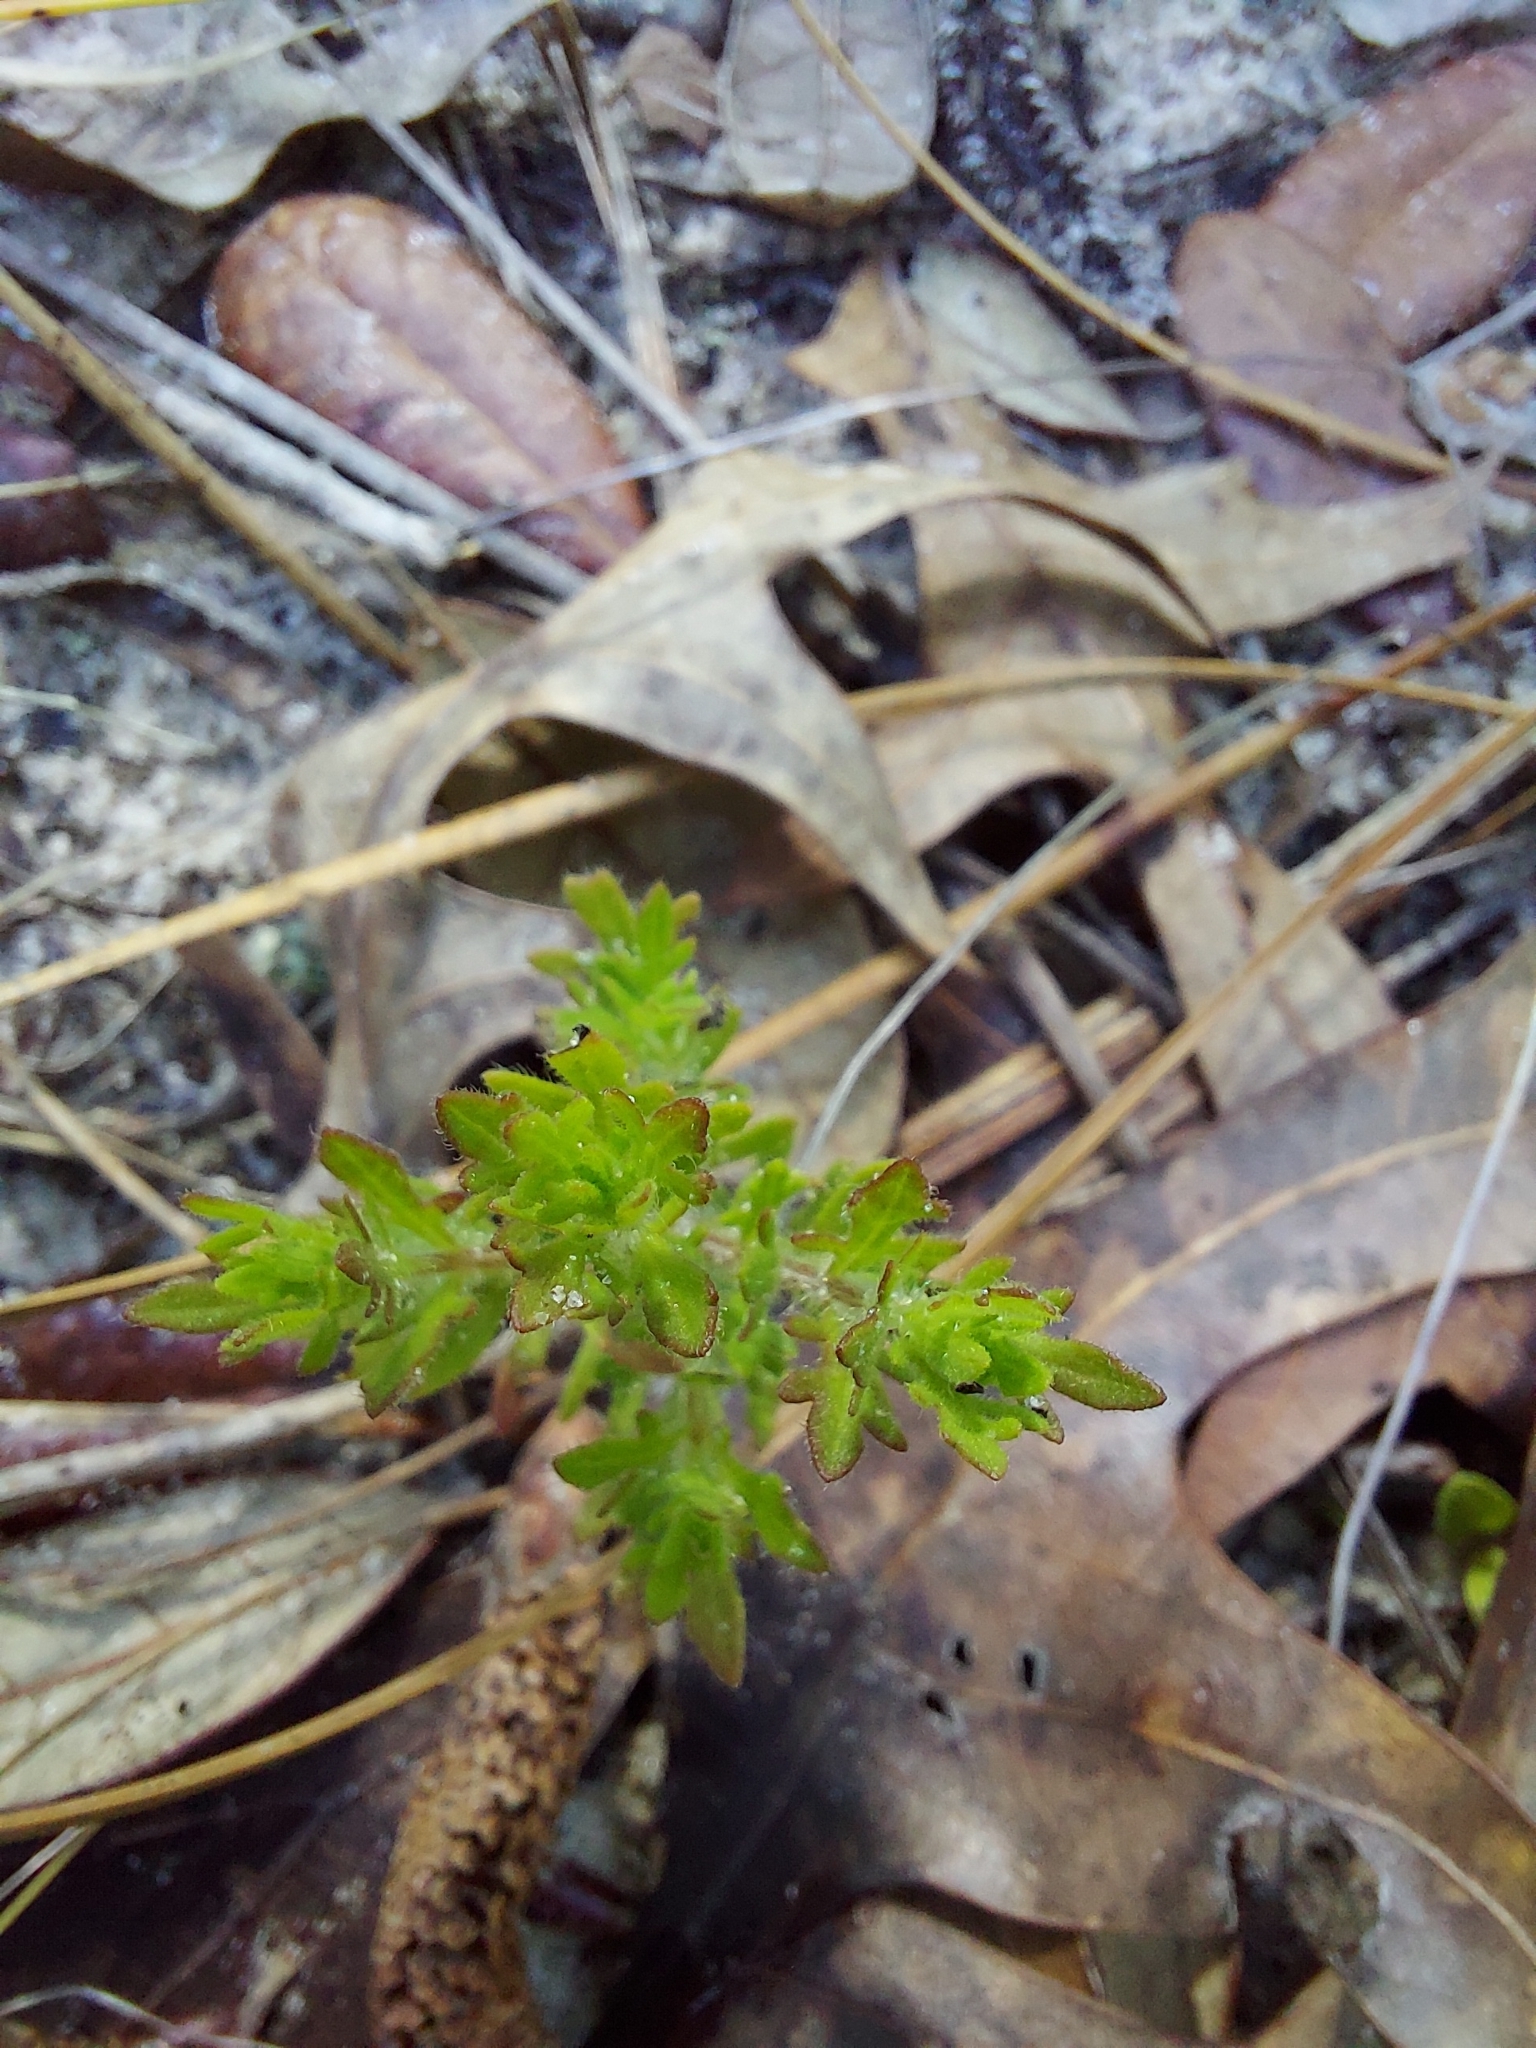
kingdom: Plantae
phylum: Tracheophyta
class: Magnoliopsida
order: Lamiales
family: Orobanchaceae
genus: Seymeria
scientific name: Seymeria pectinata
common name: Piedmont black-senna
